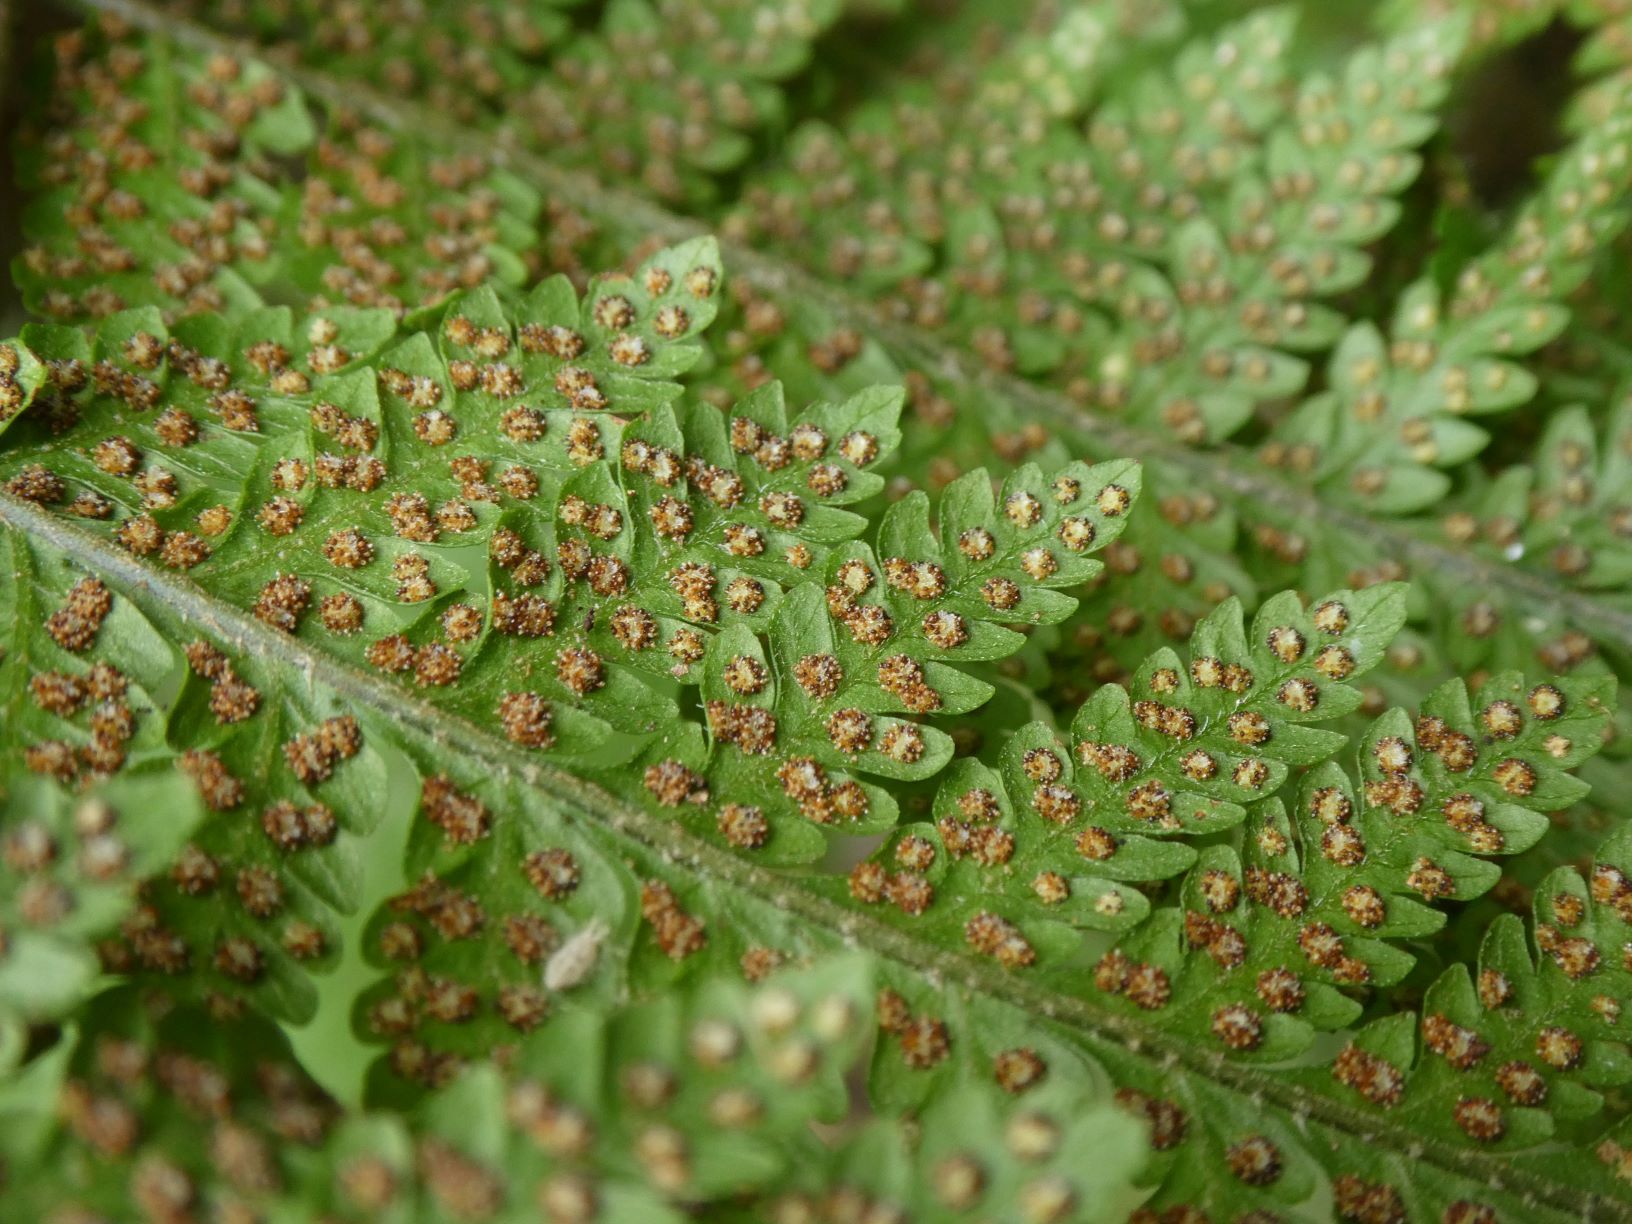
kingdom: Plantae
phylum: Tracheophyta
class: Polypodiopsida
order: Polypodiales
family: Dryopteridaceae
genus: Ctenitis
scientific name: Ctenitis sloanei
